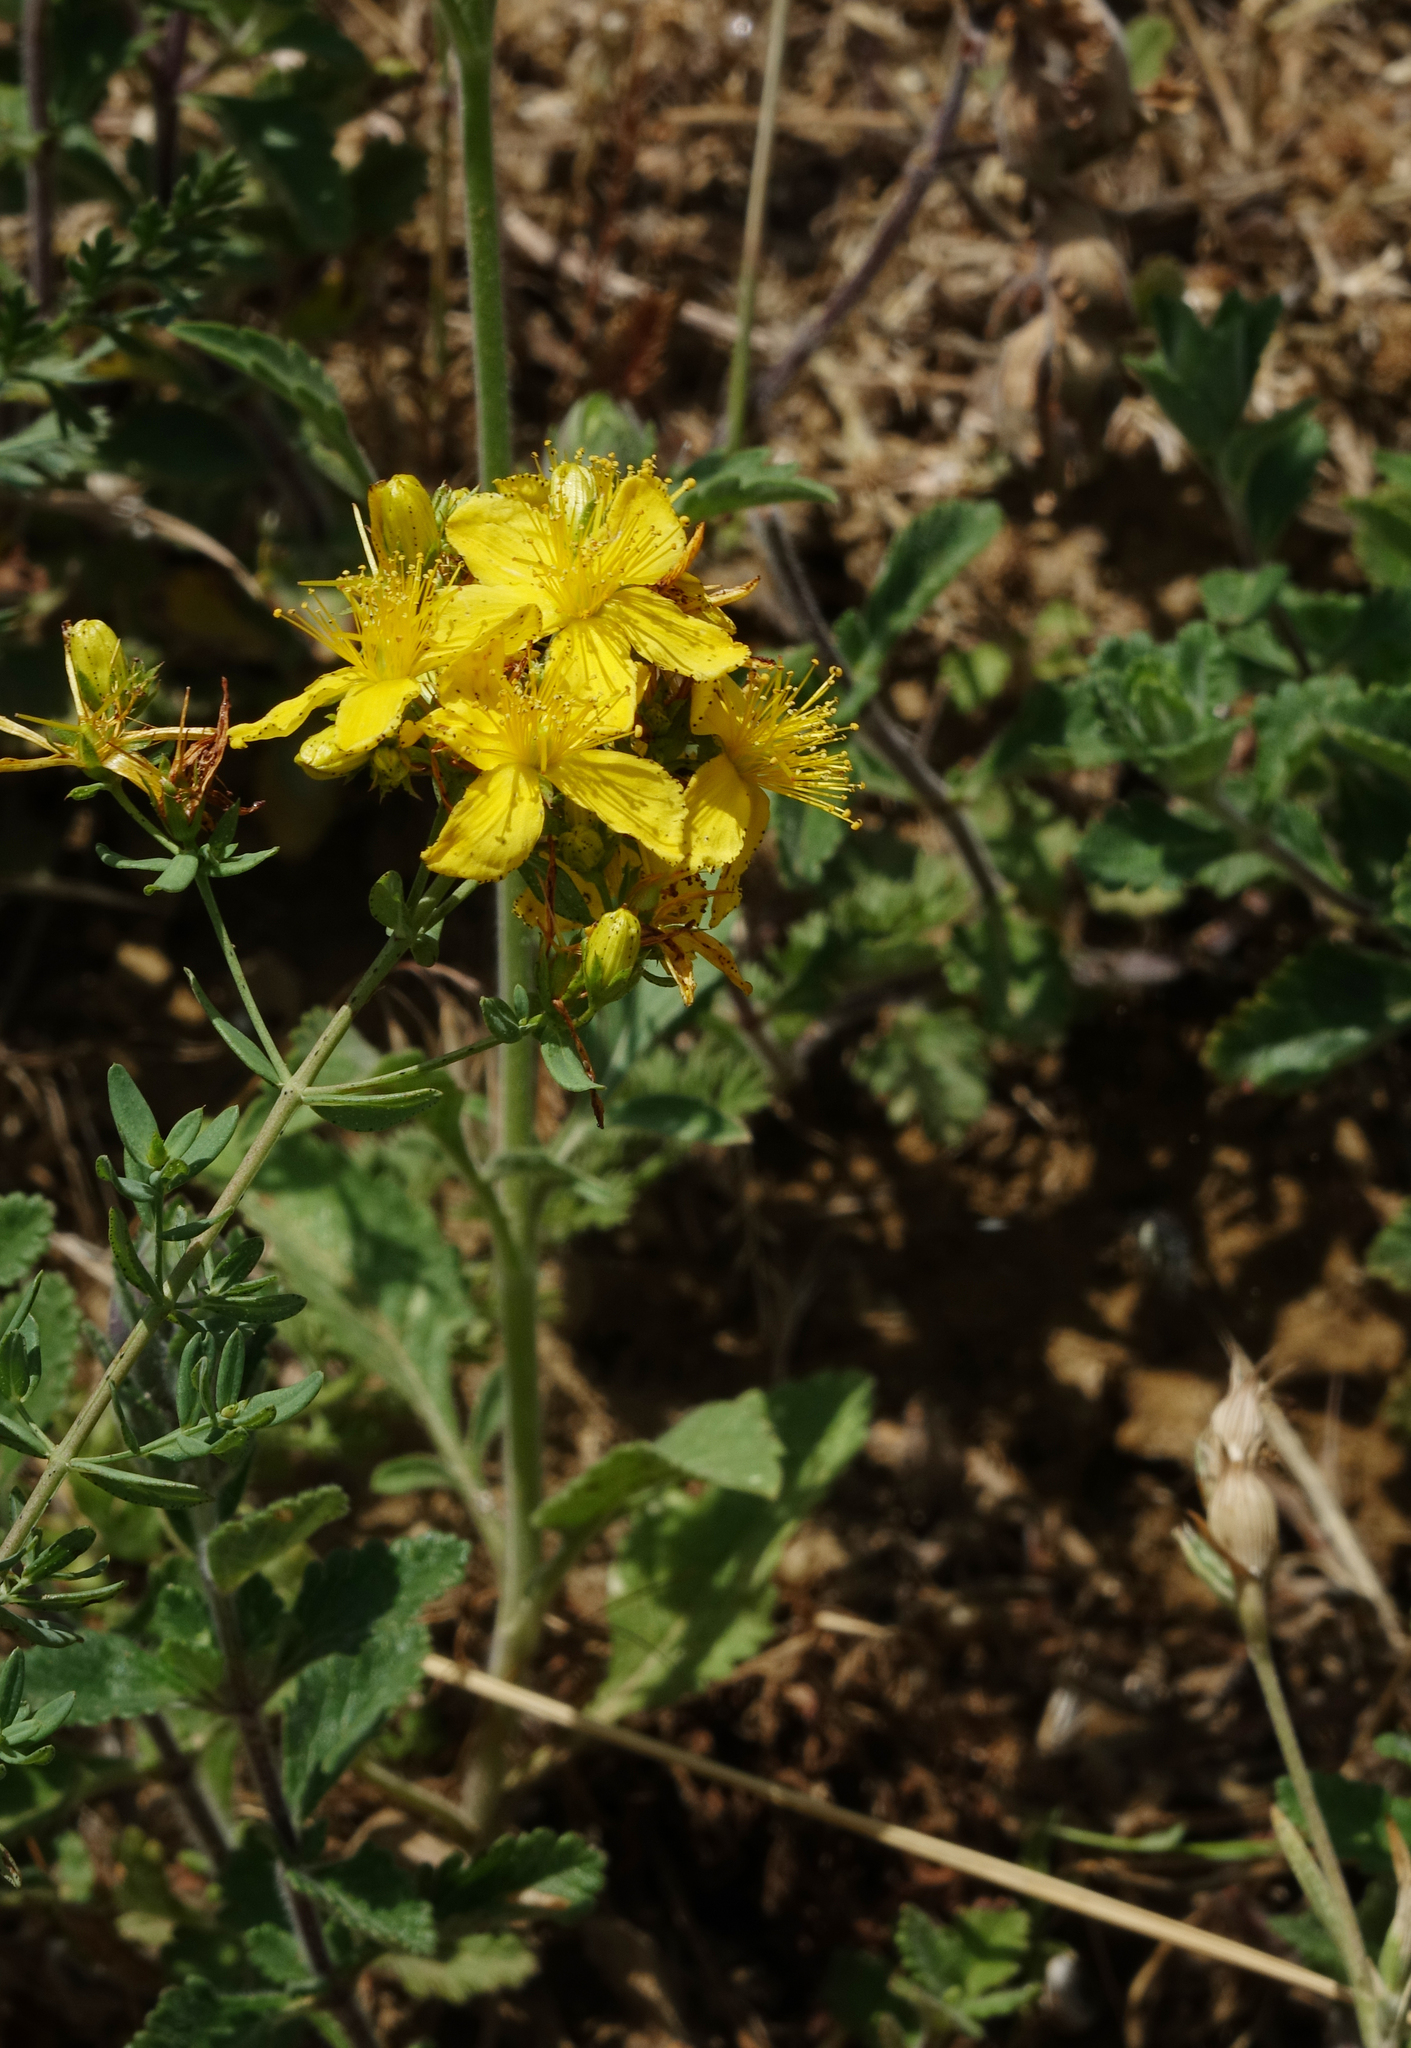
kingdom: Plantae
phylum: Tracheophyta
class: Magnoliopsida
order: Malpighiales
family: Hypericaceae
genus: Hypericum
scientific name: Hypericum perforatum
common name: Common st. johnswort
